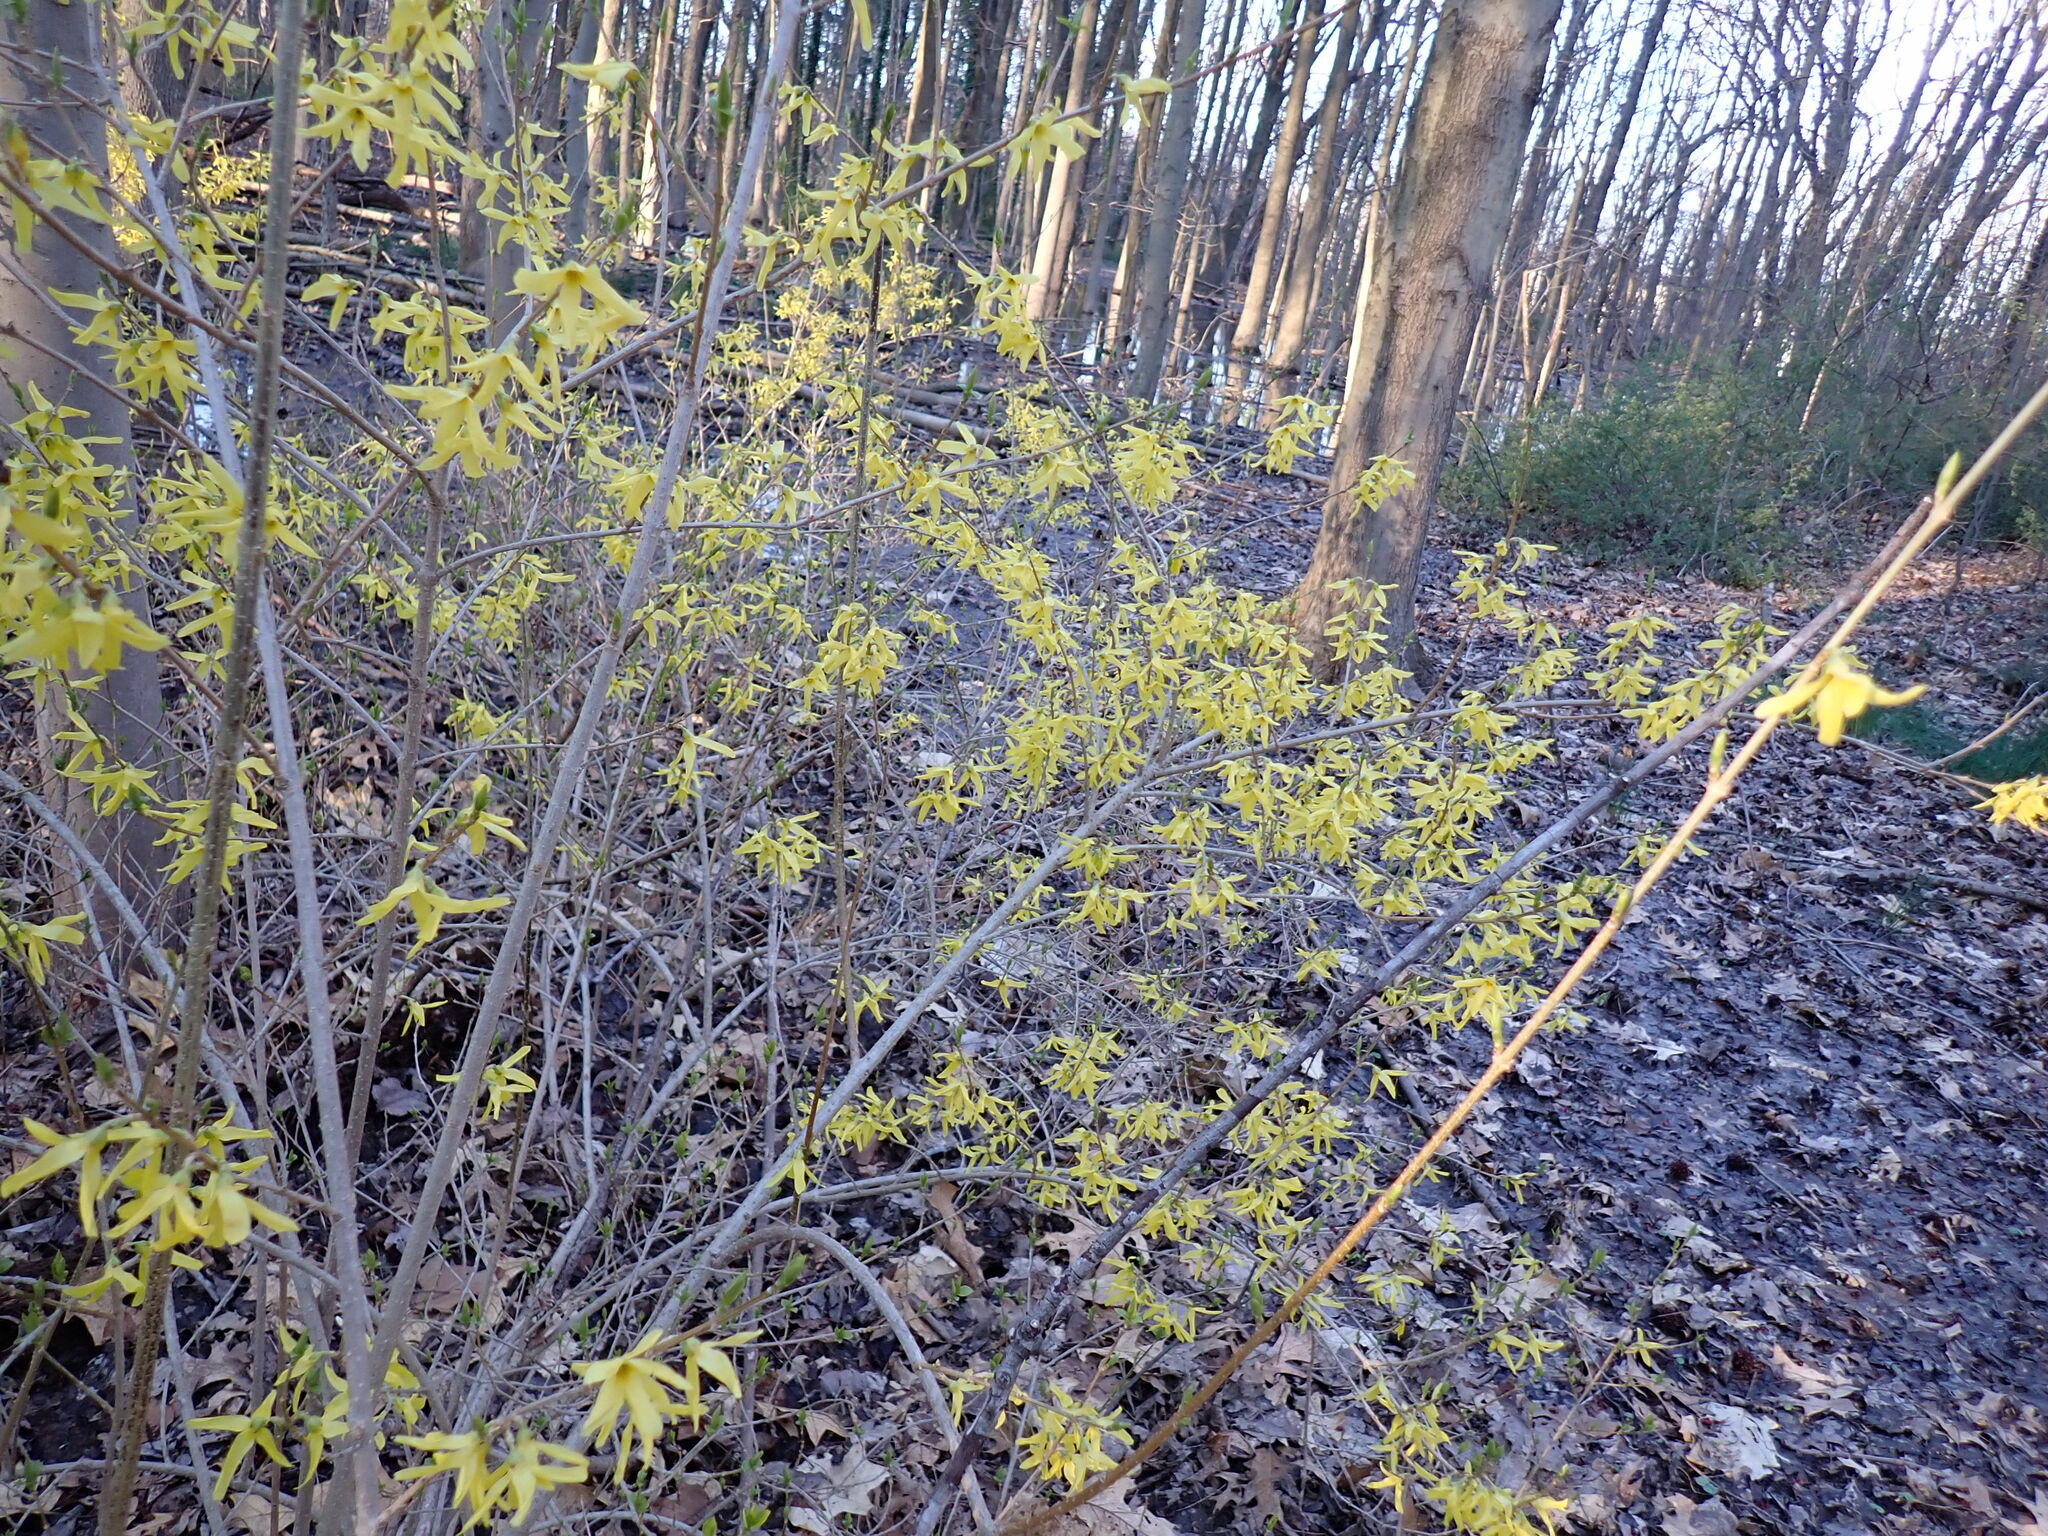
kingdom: Plantae
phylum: Tracheophyta
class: Magnoliopsida
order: Lamiales
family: Oleaceae
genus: Forsythia
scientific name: Forsythia intermedia
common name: Forsythia
